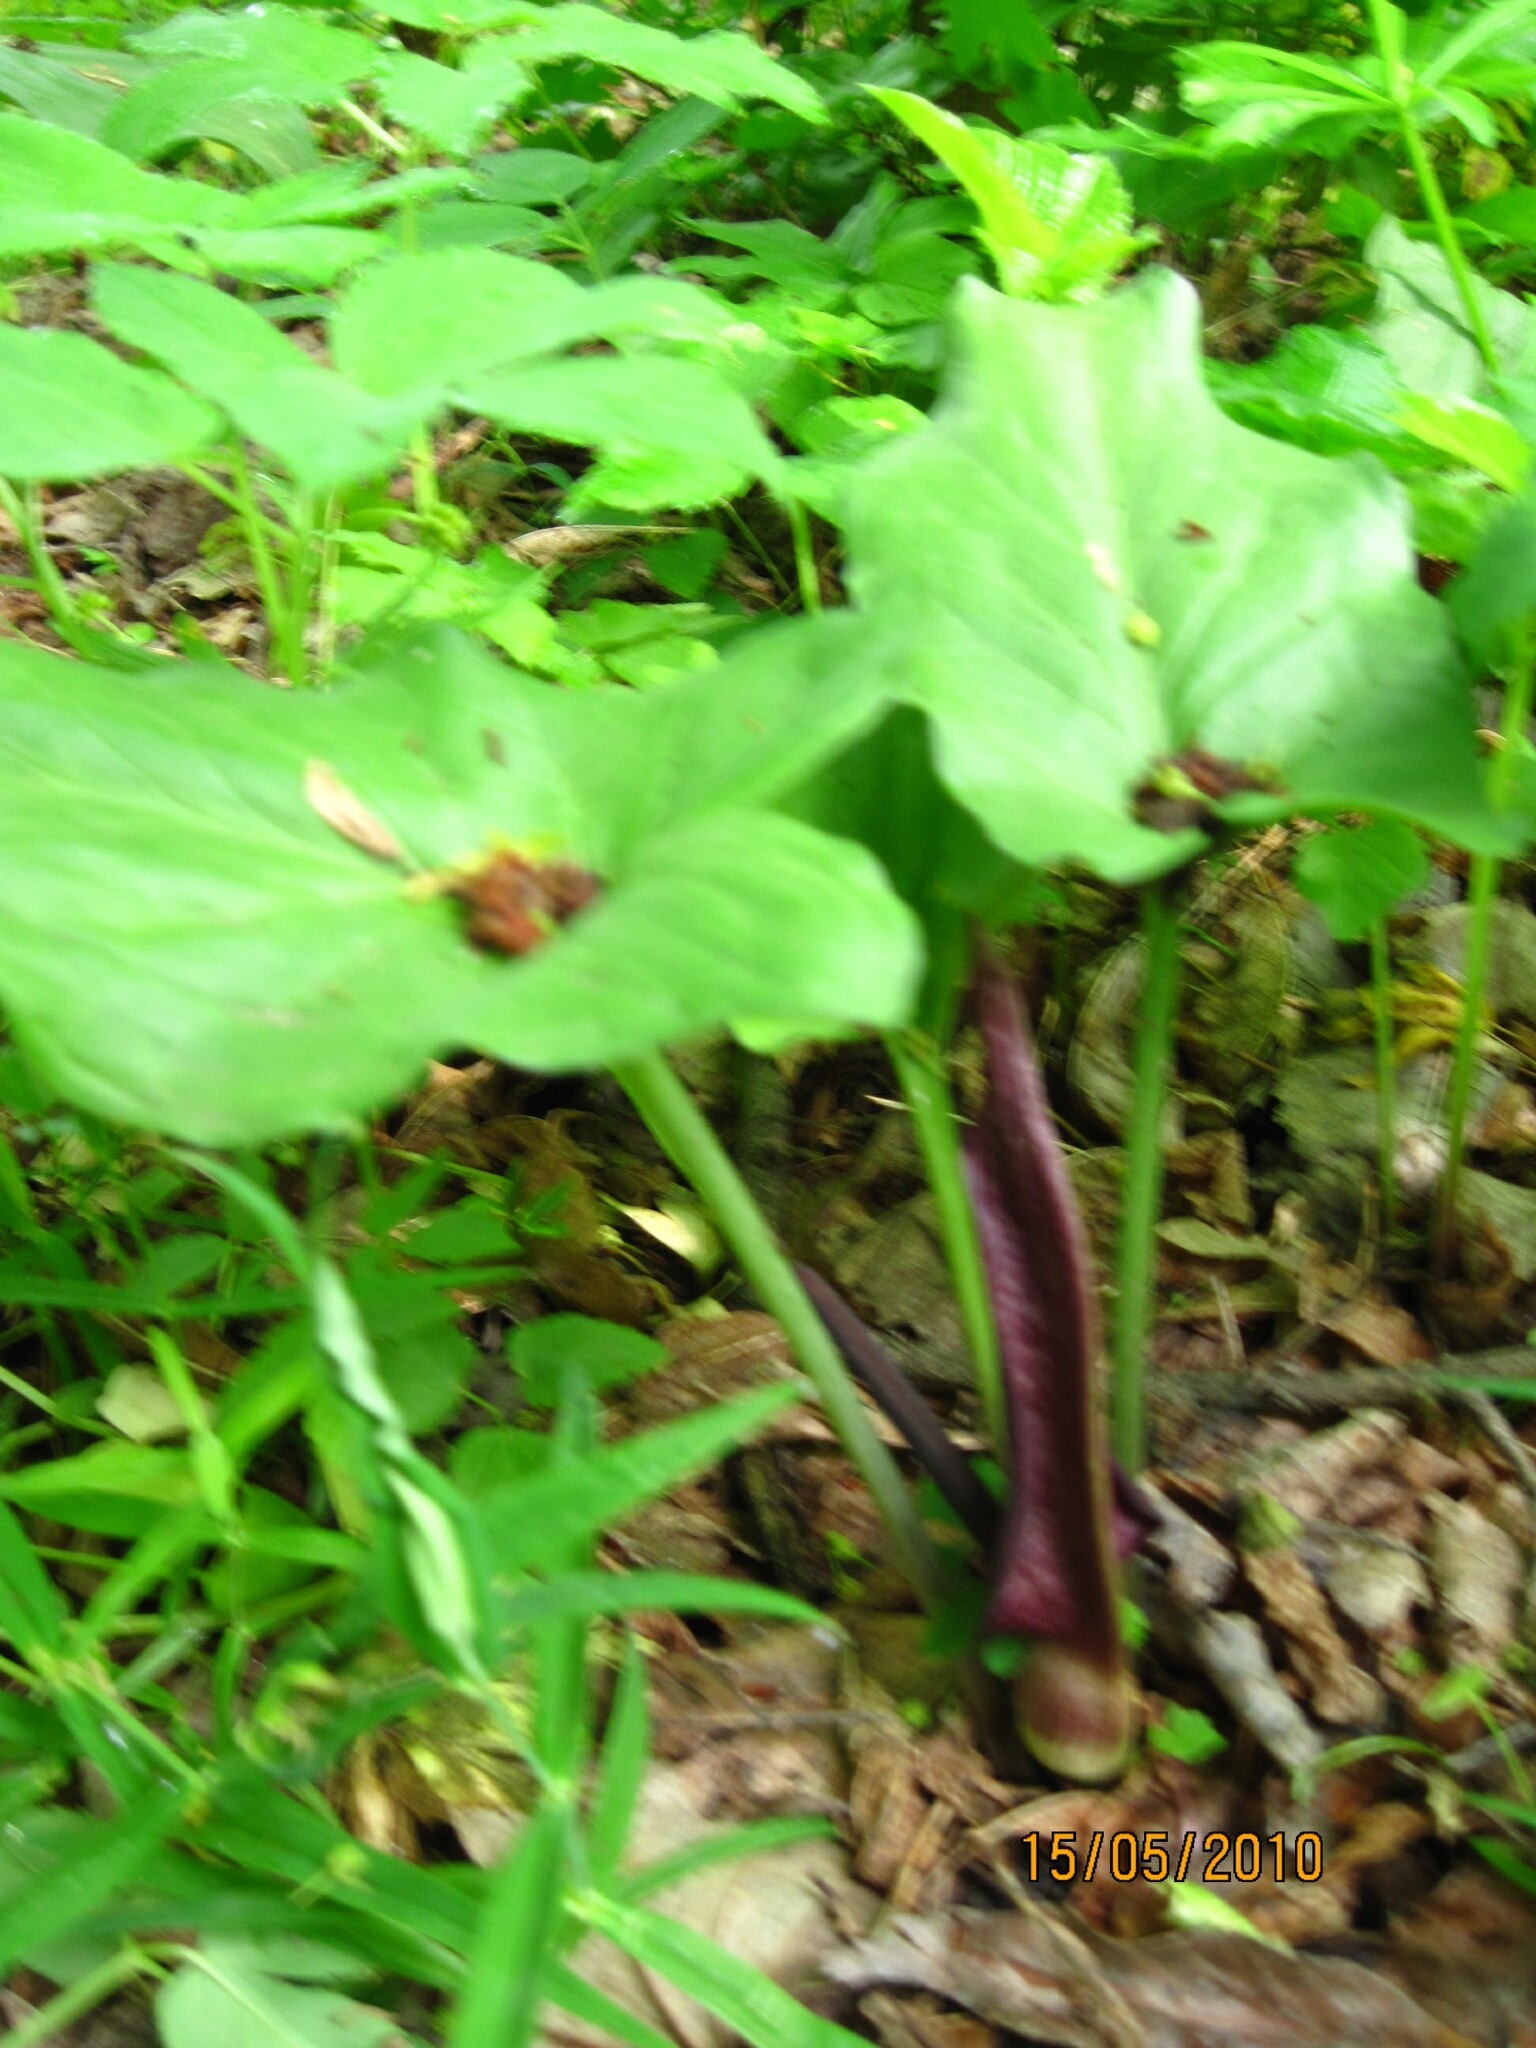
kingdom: Plantae
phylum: Tracheophyta
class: Liliopsida
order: Alismatales
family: Araceae
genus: Arum
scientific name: Arum orientale
